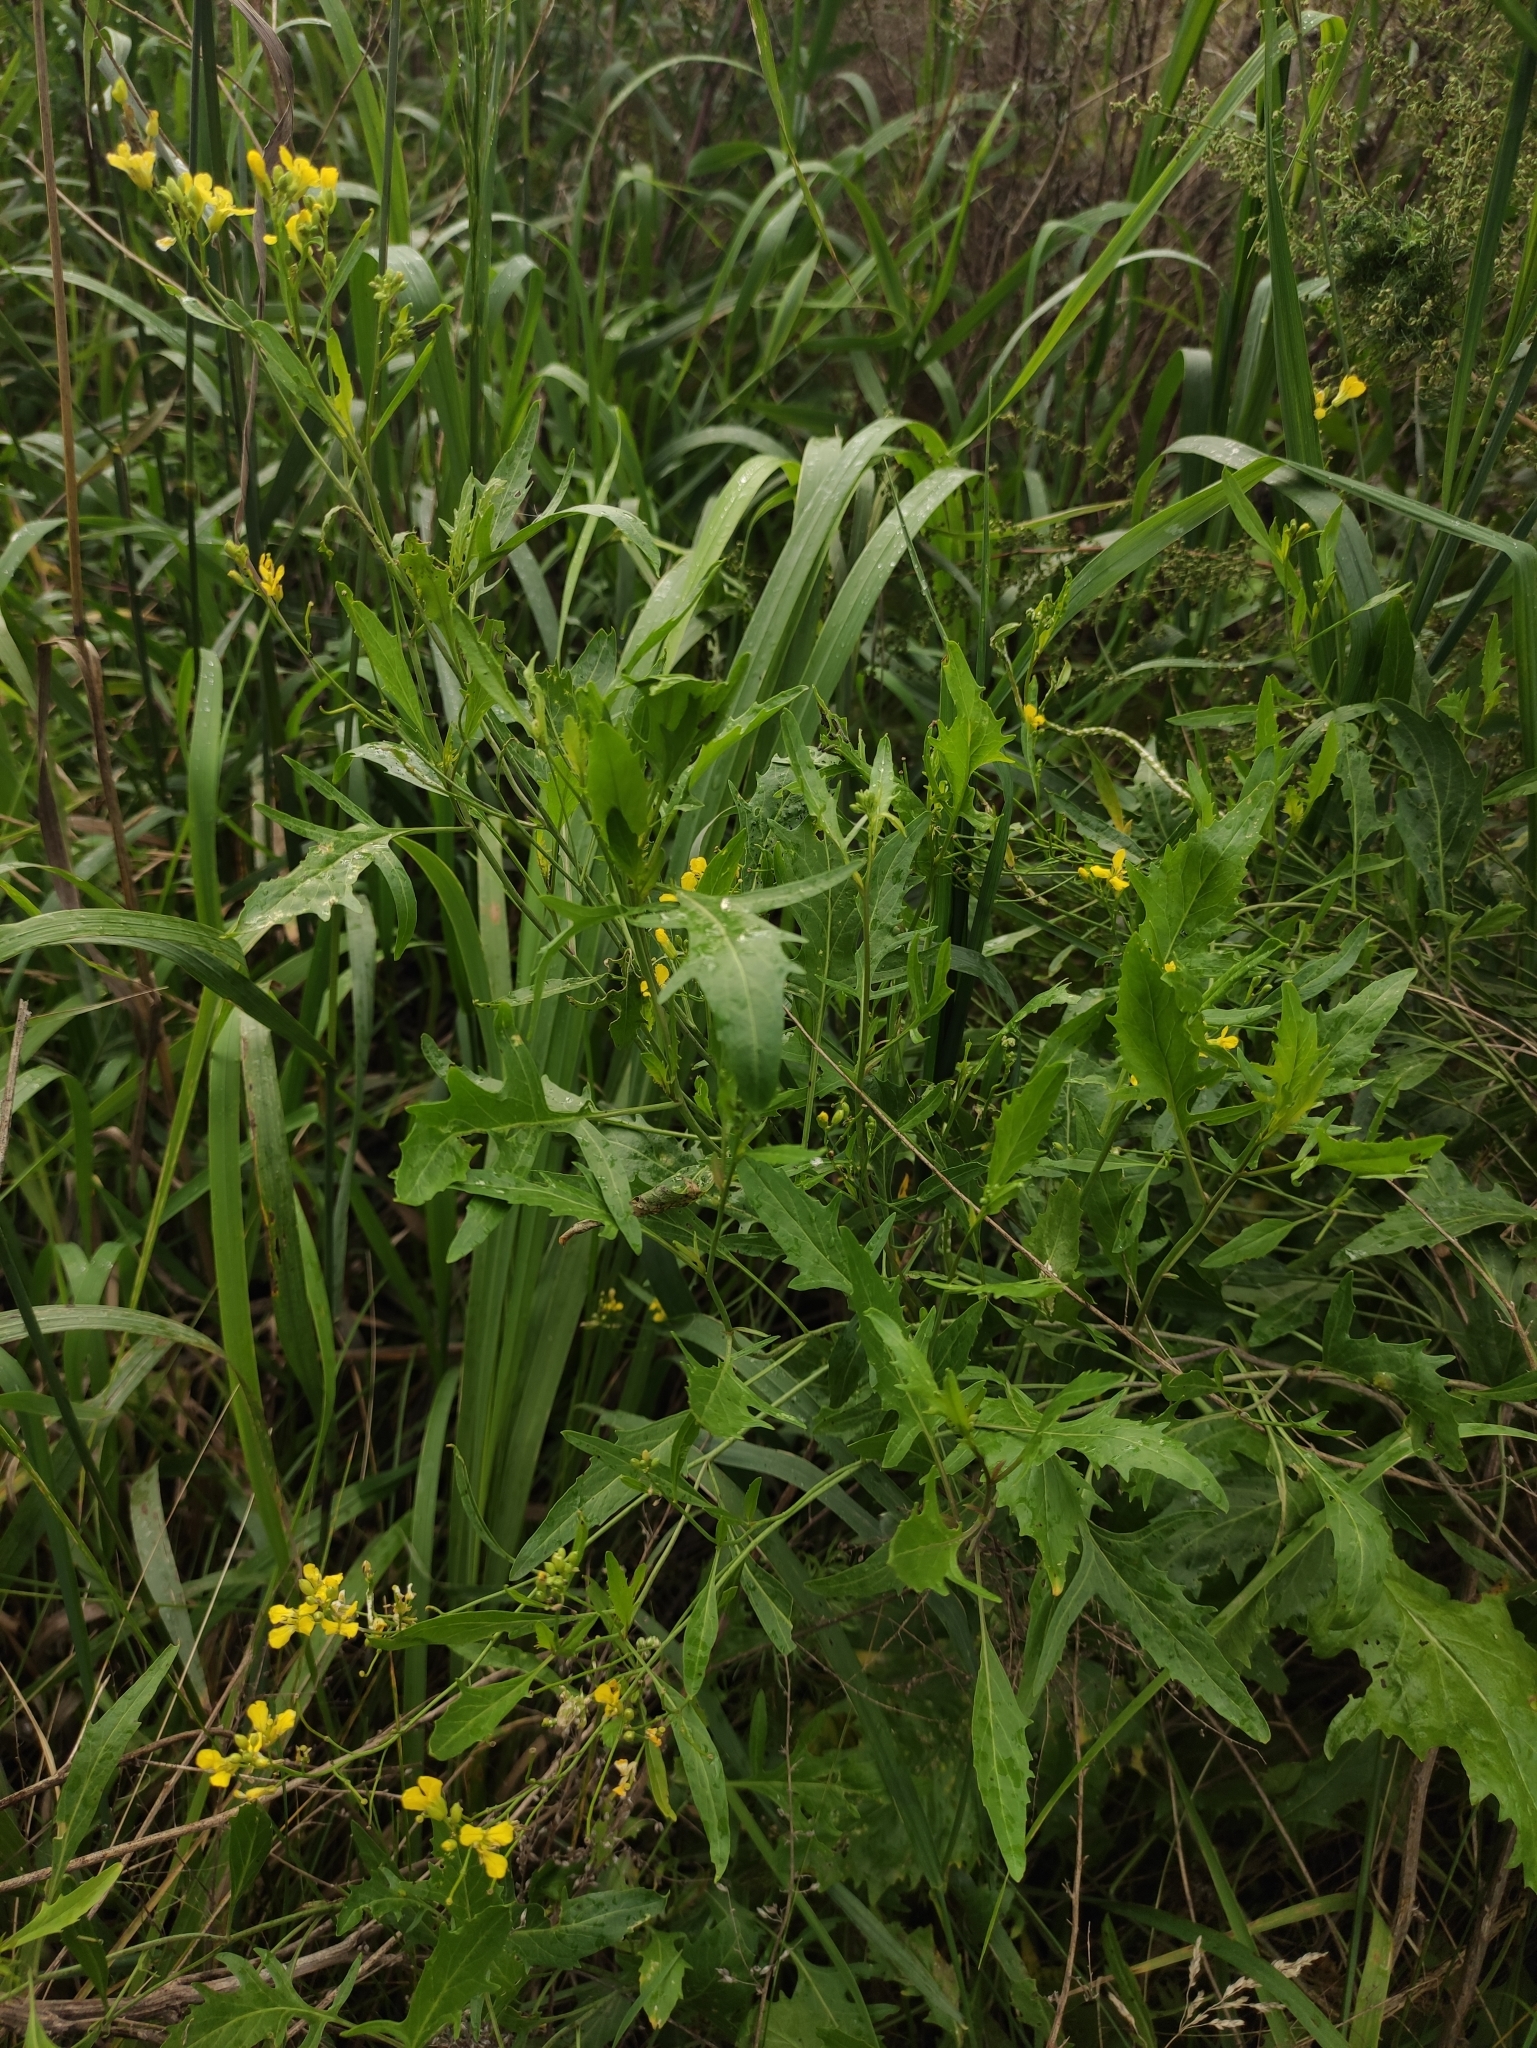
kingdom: Plantae
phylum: Tracheophyta
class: Magnoliopsida
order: Brassicales
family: Brassicaceae
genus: Sisymbrium
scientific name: Sisymbrium volgense
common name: Russian mustard
